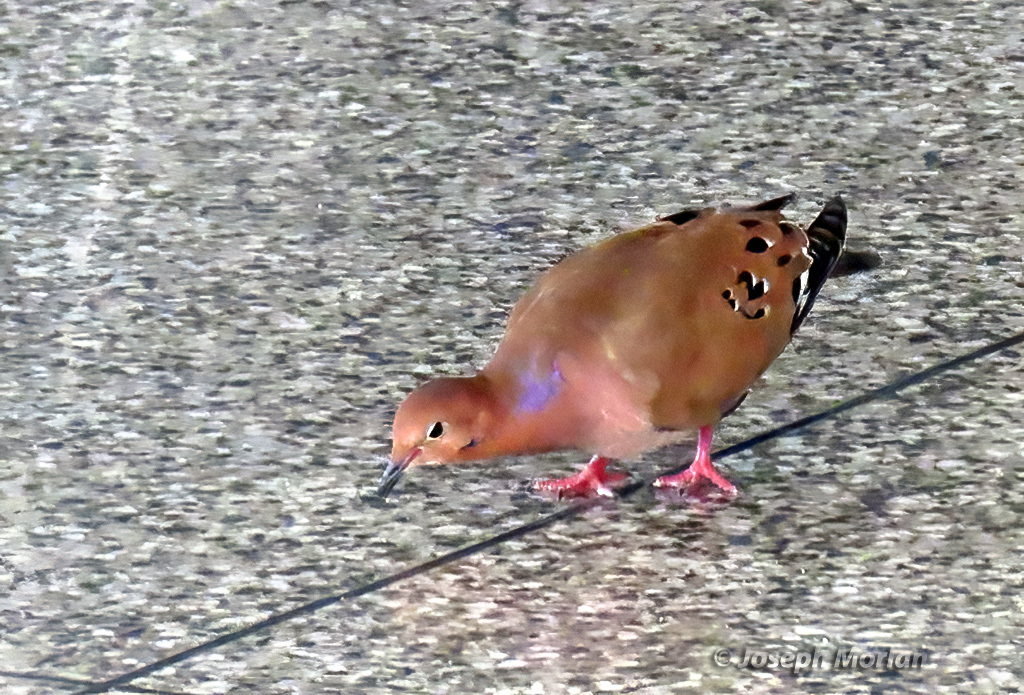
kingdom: Animalia
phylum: Chordata
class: Aves
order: Columbiformes
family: Columbidae
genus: Zenaida
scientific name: Zenaida aurita
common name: Zenaida dove
